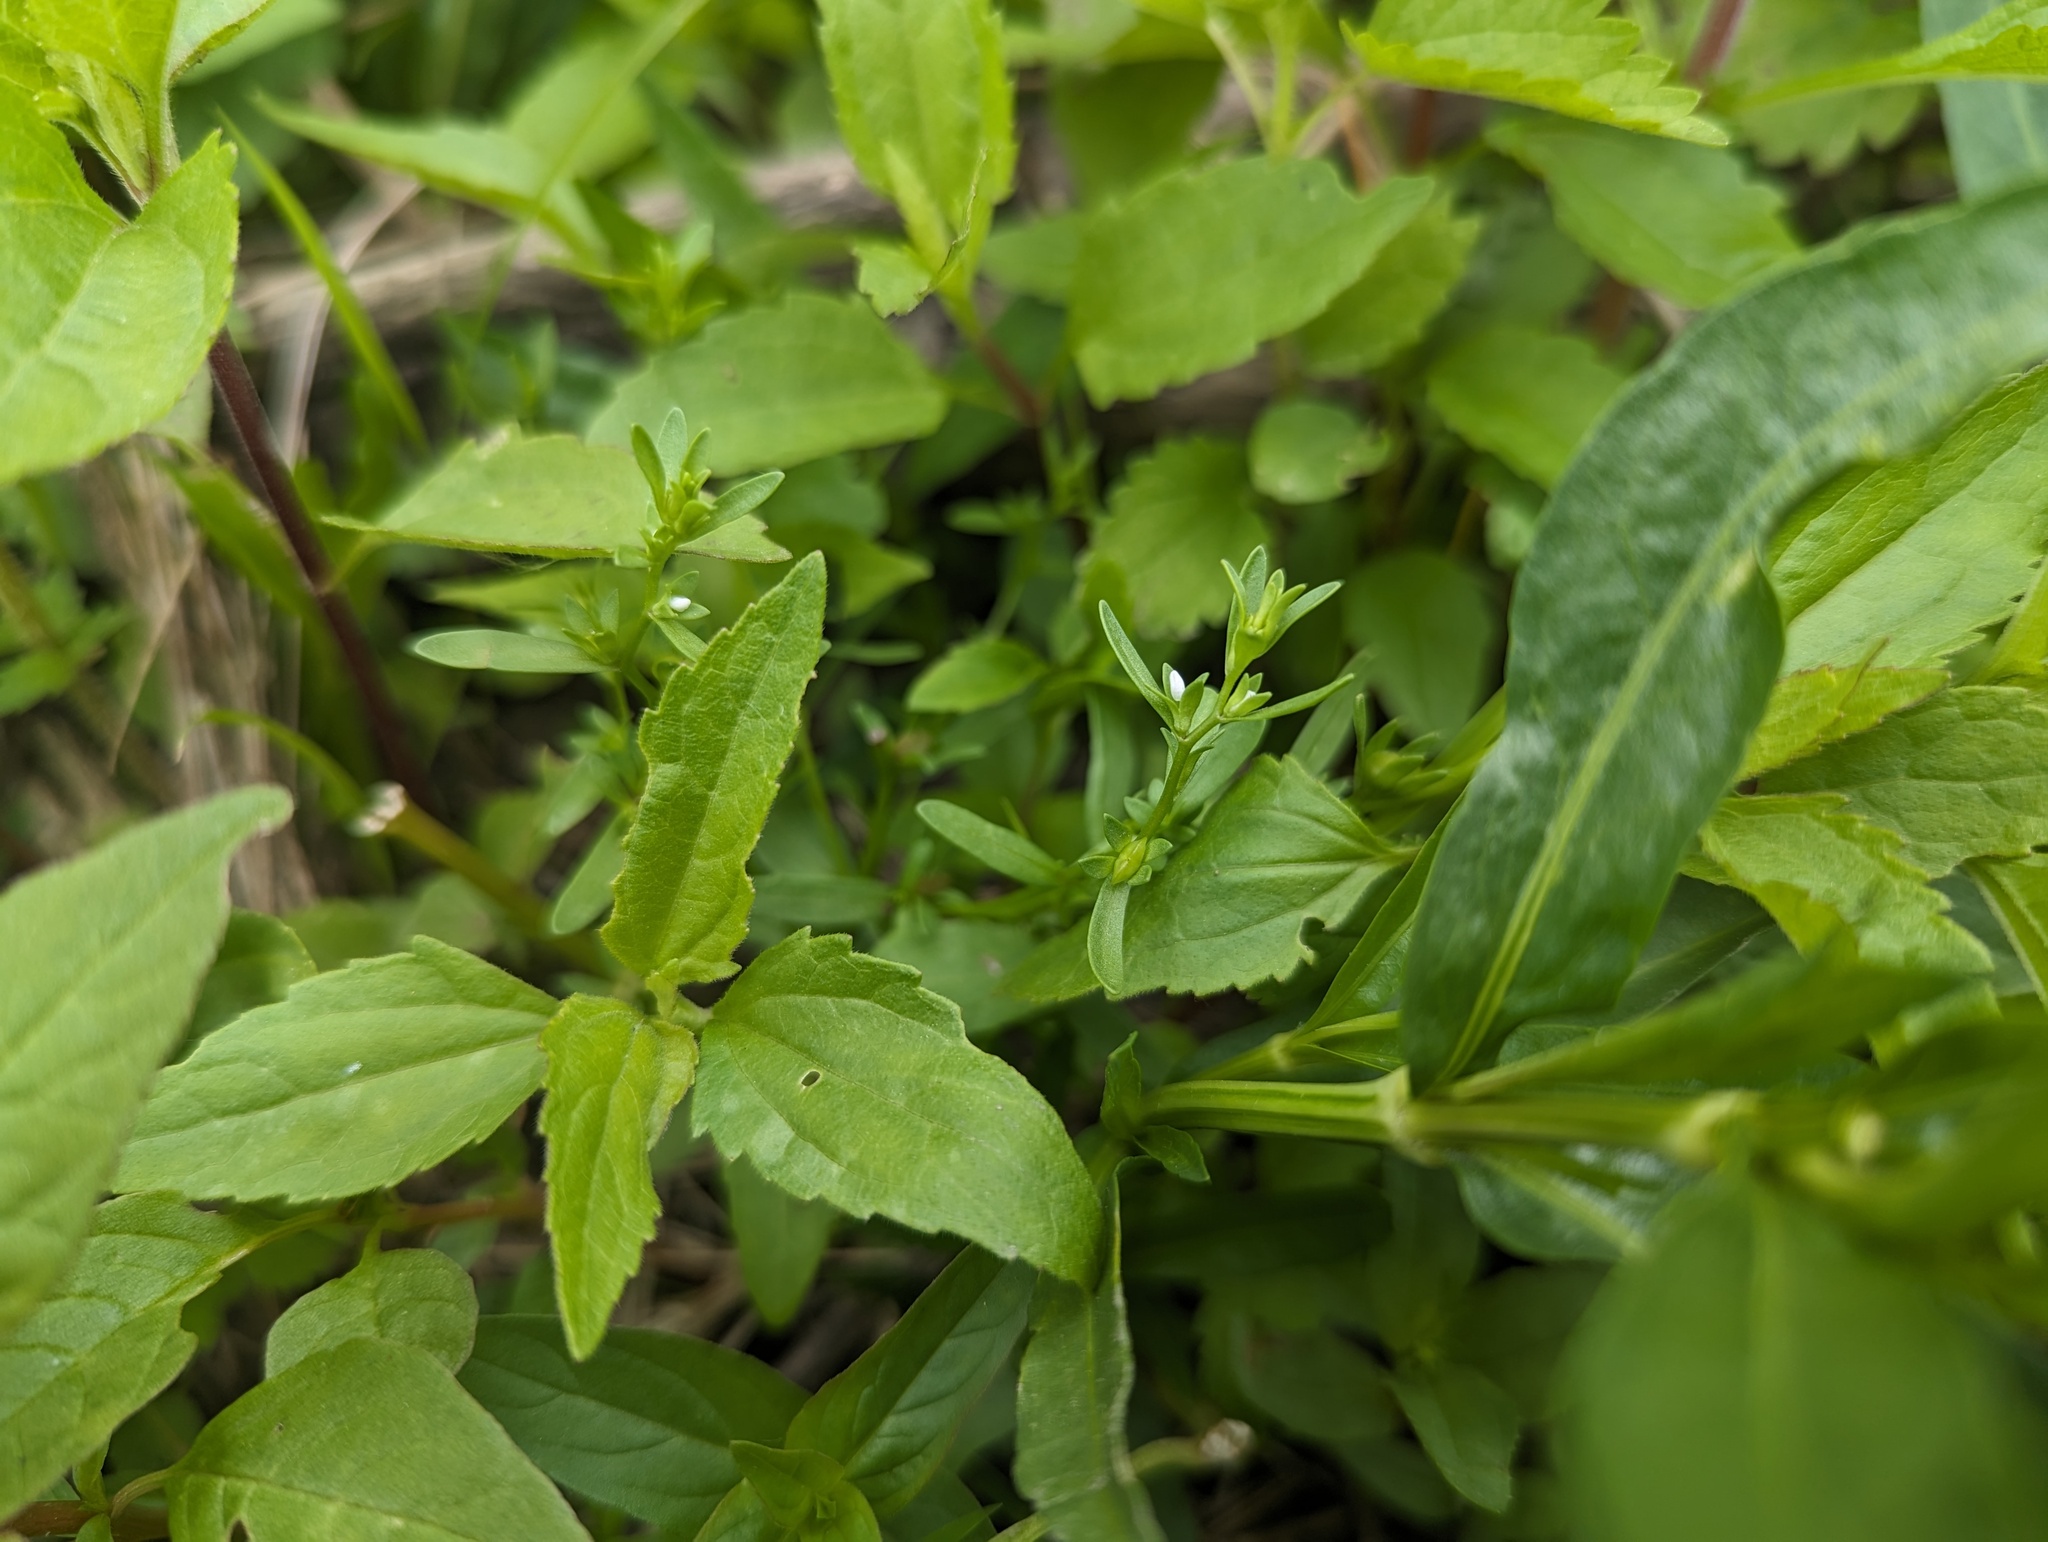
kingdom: Plantae
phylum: Tracheophyta
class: Magnoliopsida
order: Lamiales
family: Plantaginaceae
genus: Veronica
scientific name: Veronica peregrina
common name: Neckweed
